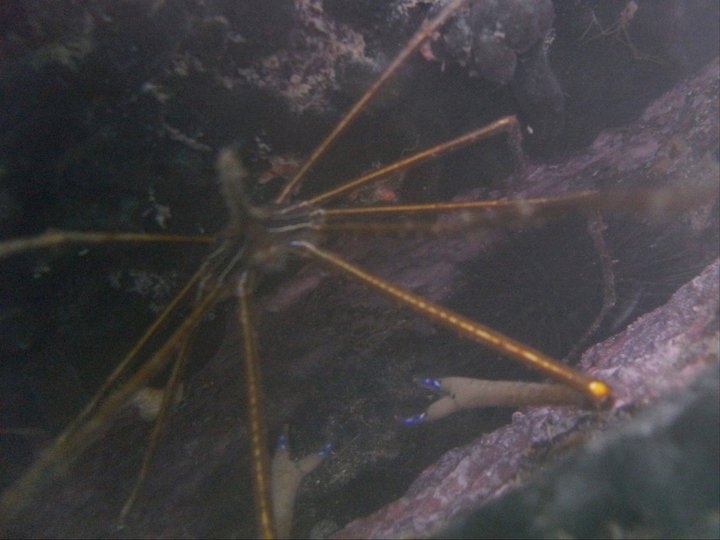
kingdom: Animalia
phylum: Arthropoda
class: Malacostraca
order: Decapoda
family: Inachoididae
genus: Stenorhynchus
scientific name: Stenorhynchus seticornis
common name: Arrow crab
